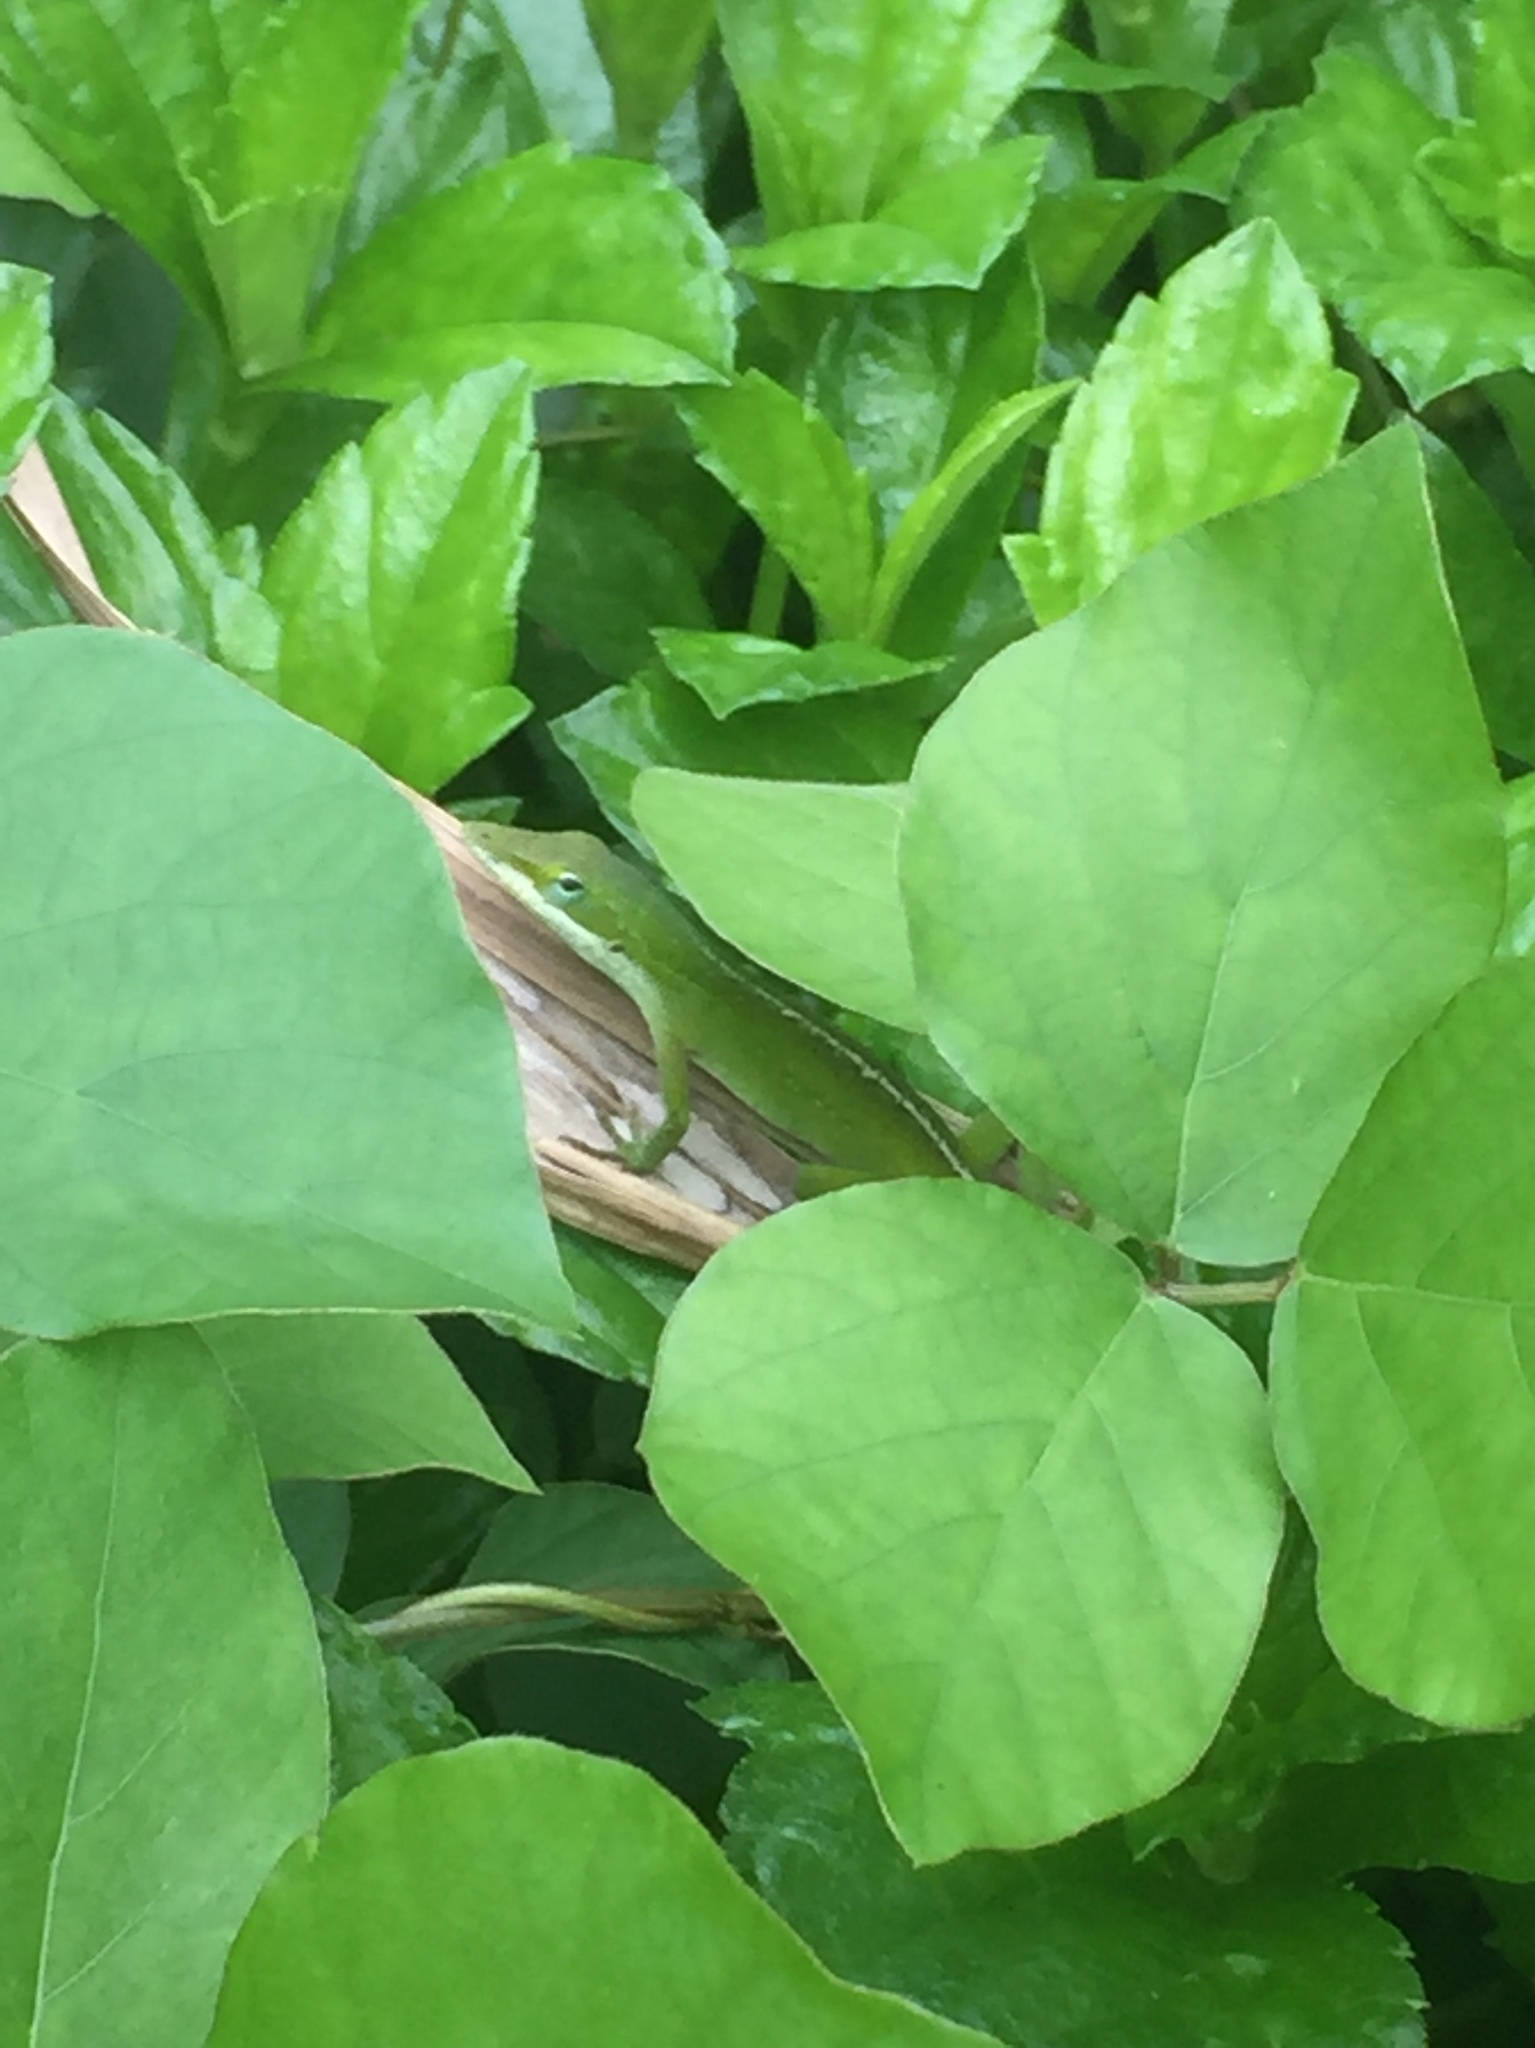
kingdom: Animalia
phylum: Chordata
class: Squamata
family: Dactyloidae
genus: Anolis
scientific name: Anolis carolinensis
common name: Green anole
